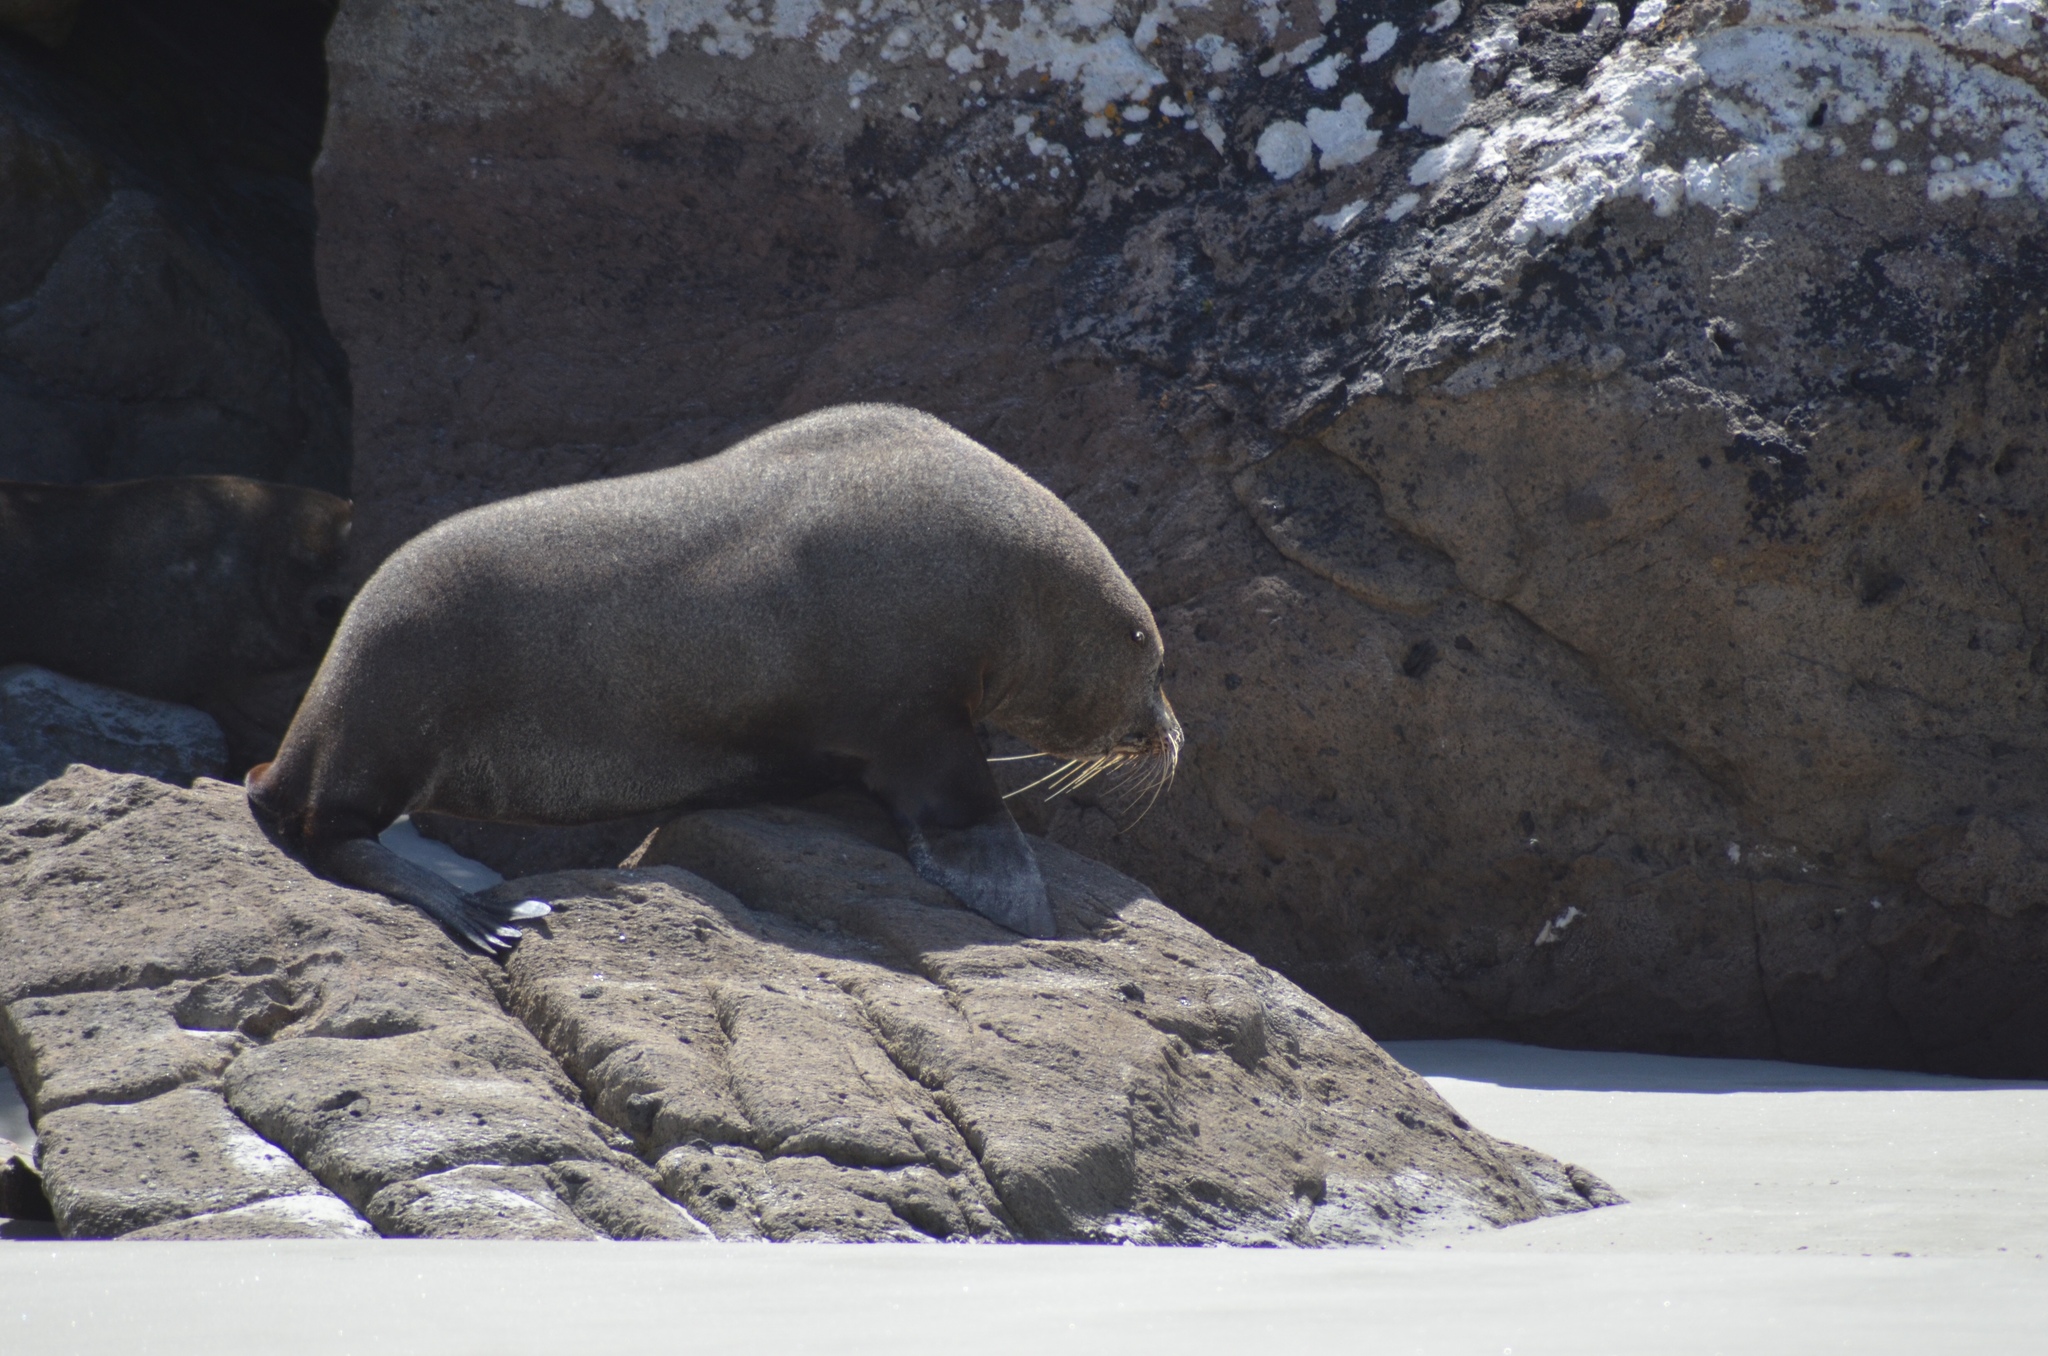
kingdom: Animalia
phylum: Chordata
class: Mammalia
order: Carnivora
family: Otariidae
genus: Arctocephalus
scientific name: Arctocephalus forsteri
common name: New zealand fur seal
